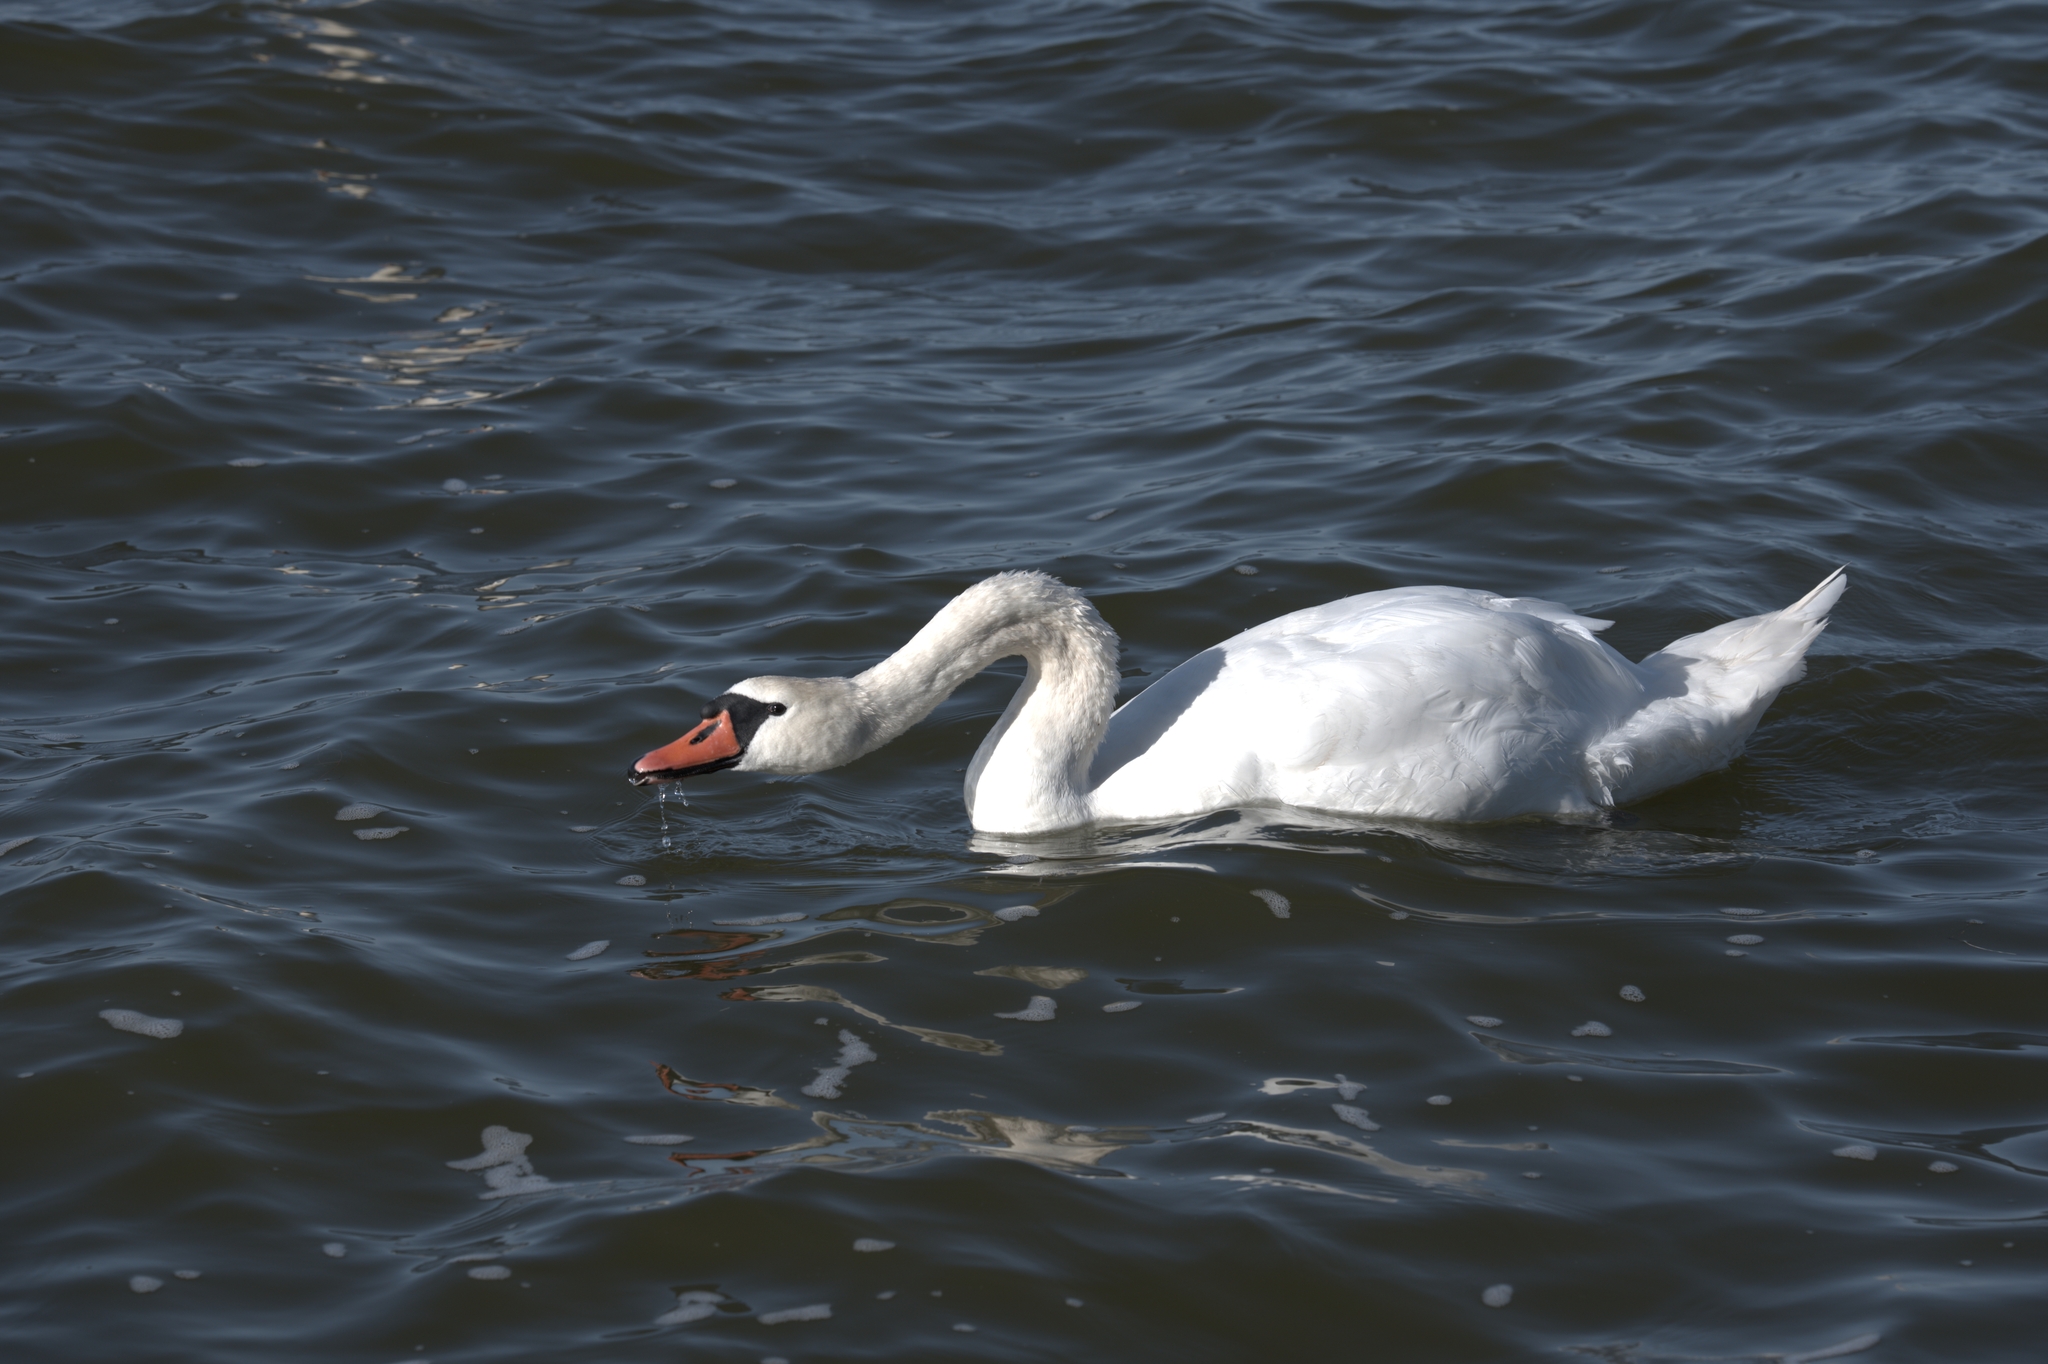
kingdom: Animalia
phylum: Chordata
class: Aves
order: Anseriformes
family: Anatidae
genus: Cygnus
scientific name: Cygnus olor
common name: Mute swan
